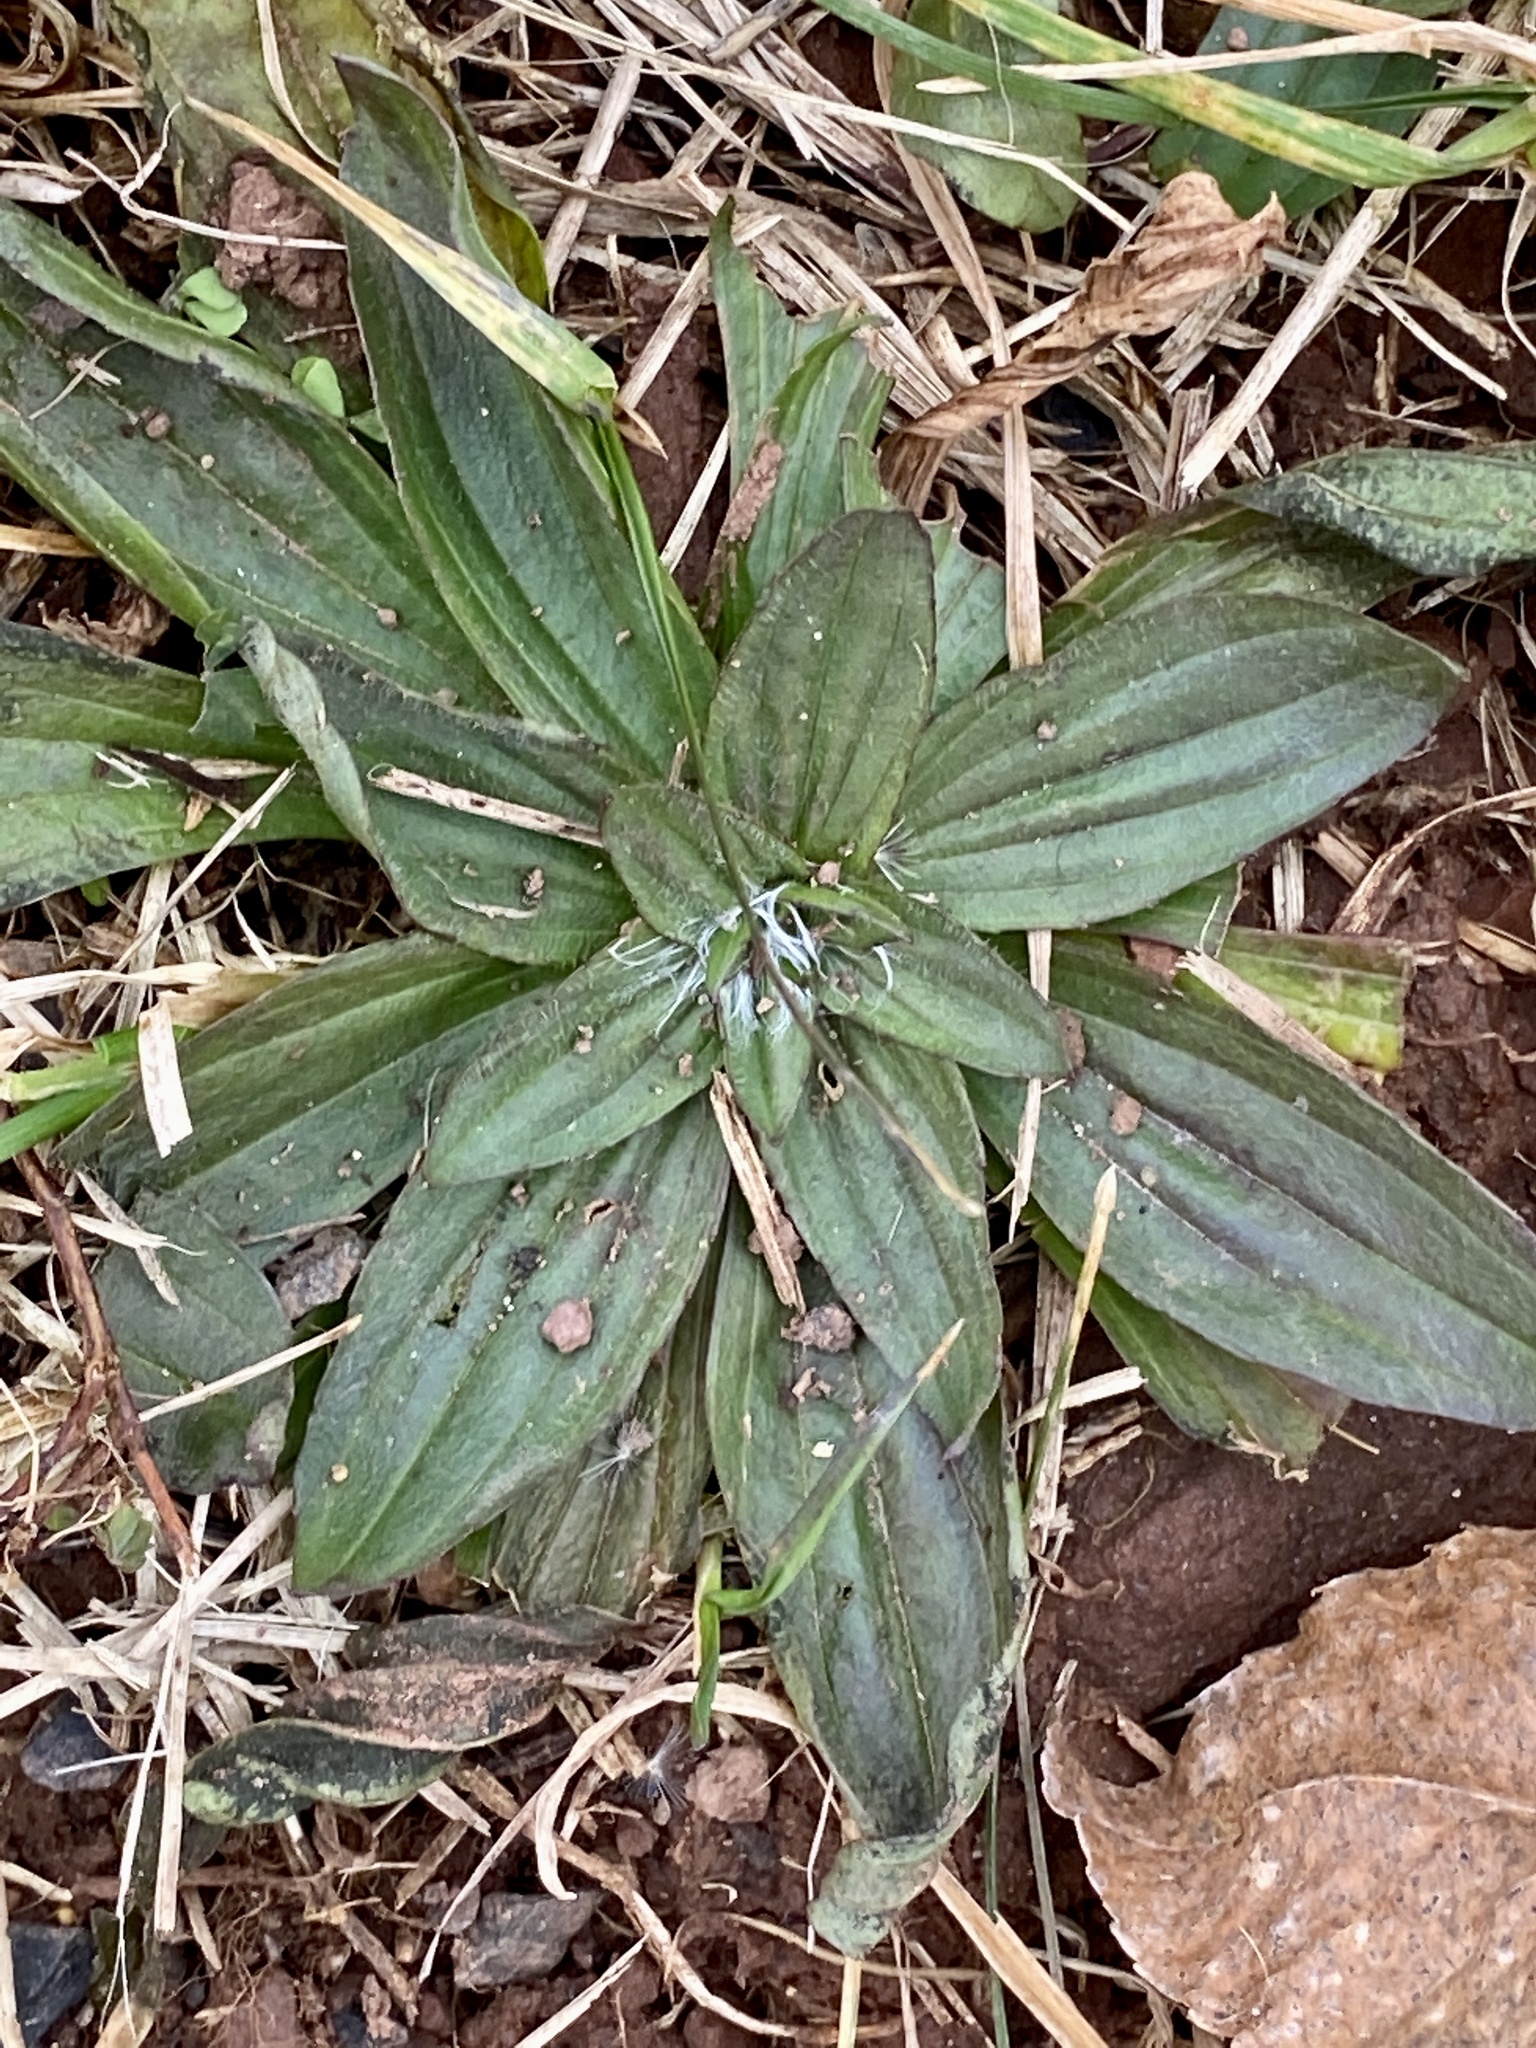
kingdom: Plantae
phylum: Tracheophyta
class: Magnoliopsida
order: Lamiales
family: Plantaginaceae
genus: Plantago
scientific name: Plantago lanceolata
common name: Ribwort plantain
